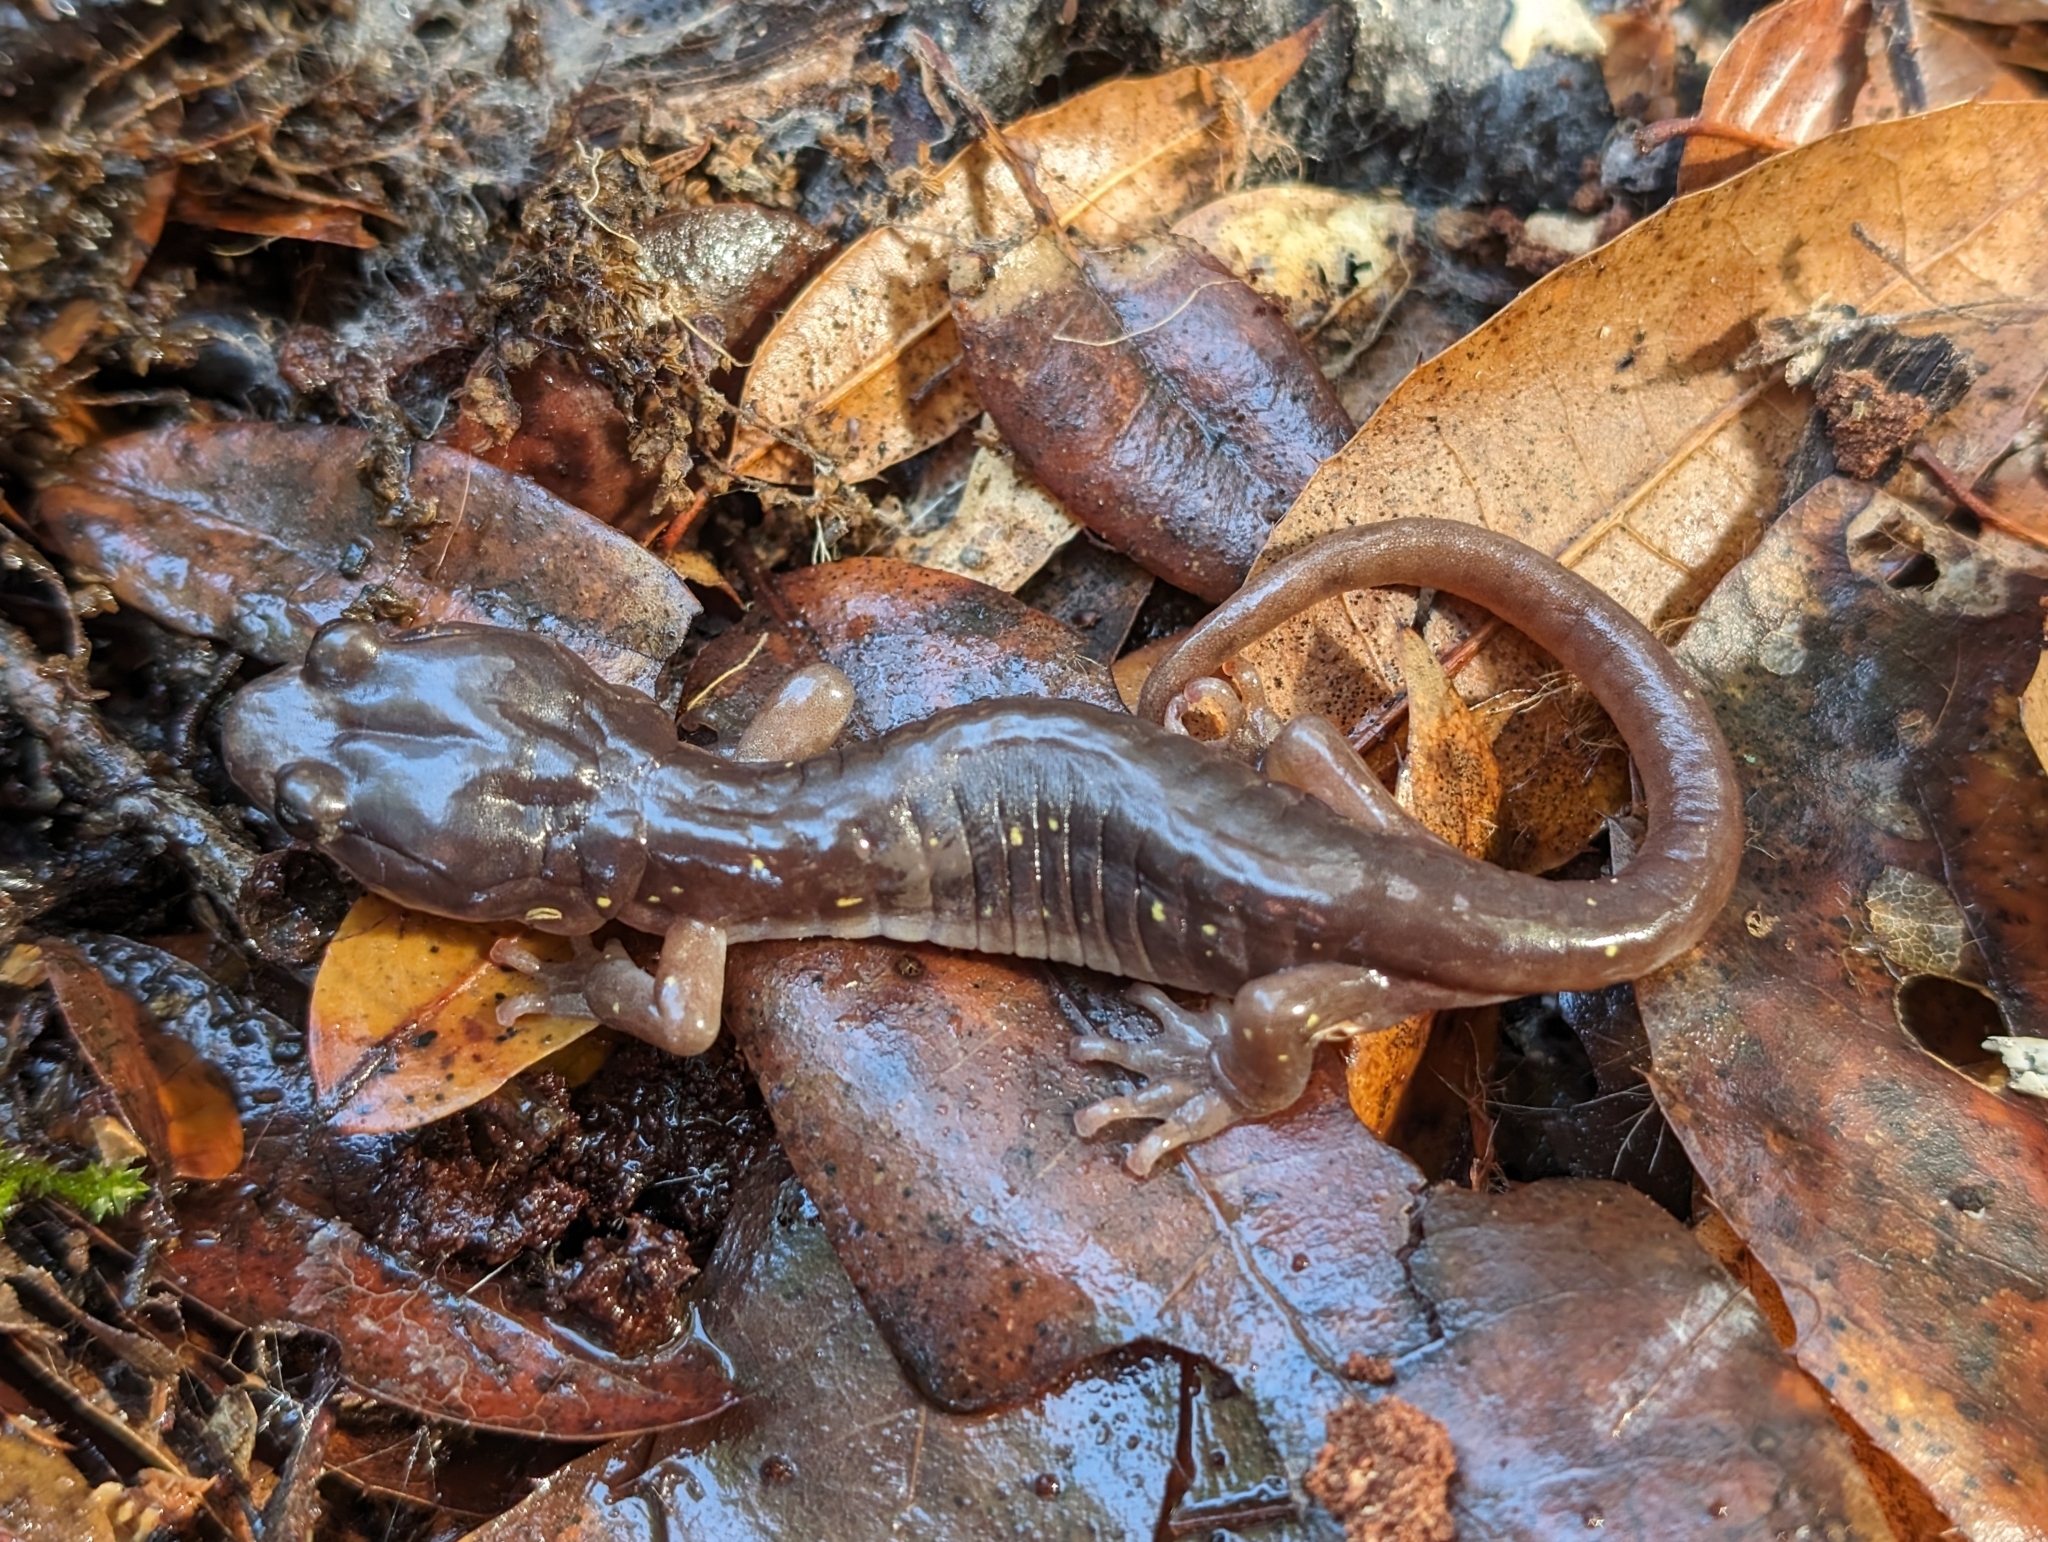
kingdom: Animalia
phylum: Chordata
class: Amphibia
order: Caudata
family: Plethodontidae
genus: Aneides
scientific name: Aneides lugubris
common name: Arboreal salamander
